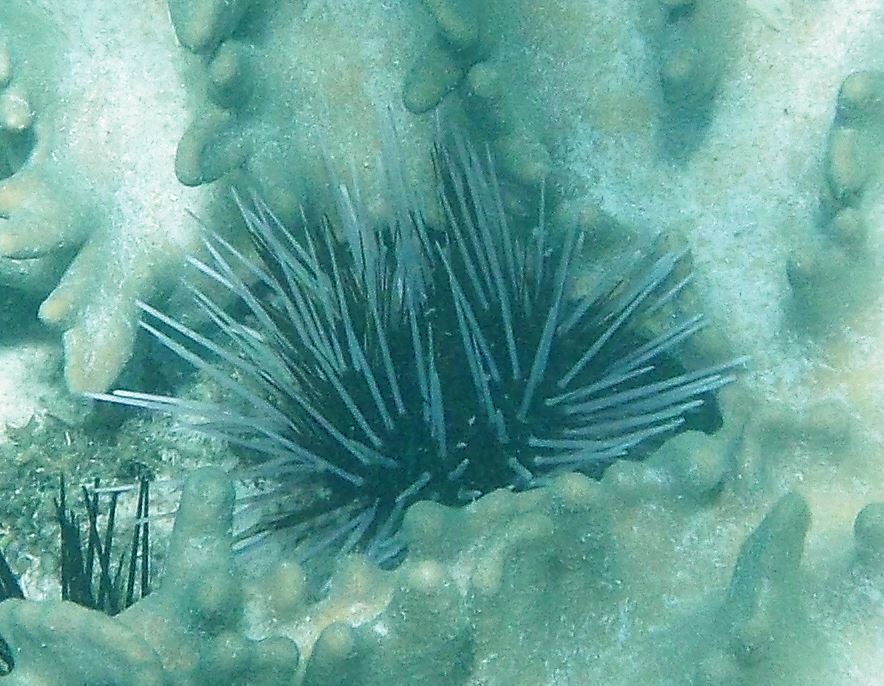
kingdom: Animalia
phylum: Echinodermata
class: Echinoidea
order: Diadematoida
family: Diadematidae
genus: Echinothrix
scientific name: Echinothrix calamaris
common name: Banded sea urchin
